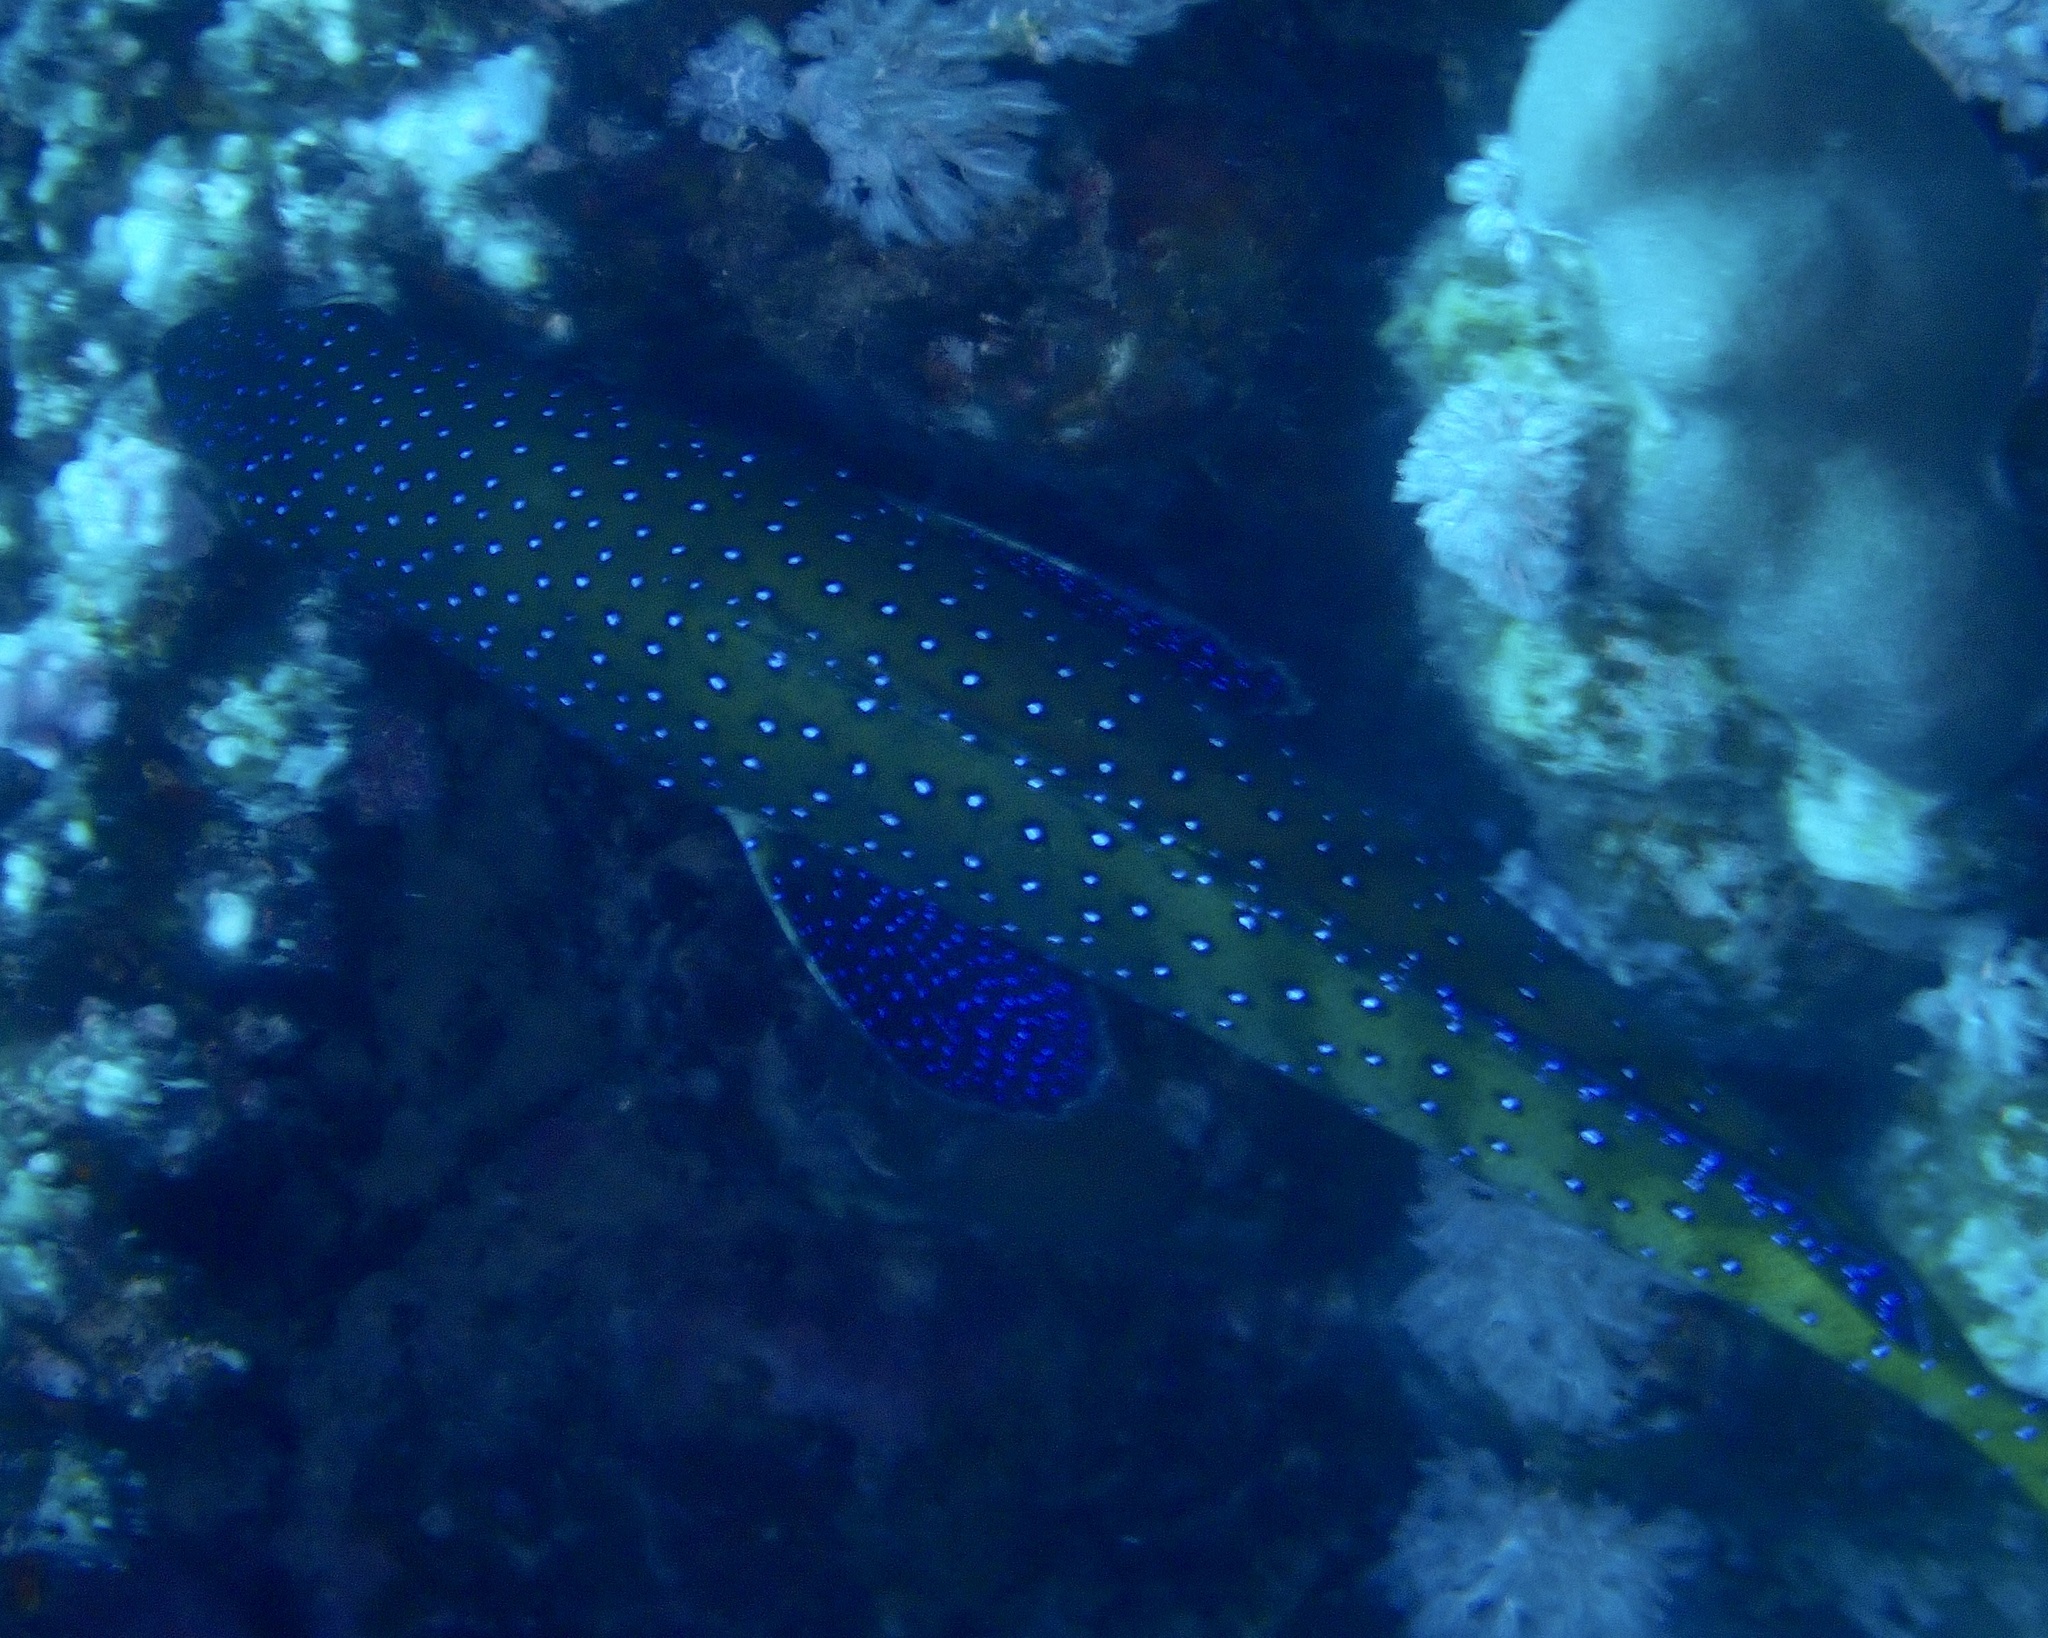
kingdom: Animalia
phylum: Chordata
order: Perciformes
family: Serranidae
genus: Cephalopholis
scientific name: Cephalopholis argus
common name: Peacock grouper
